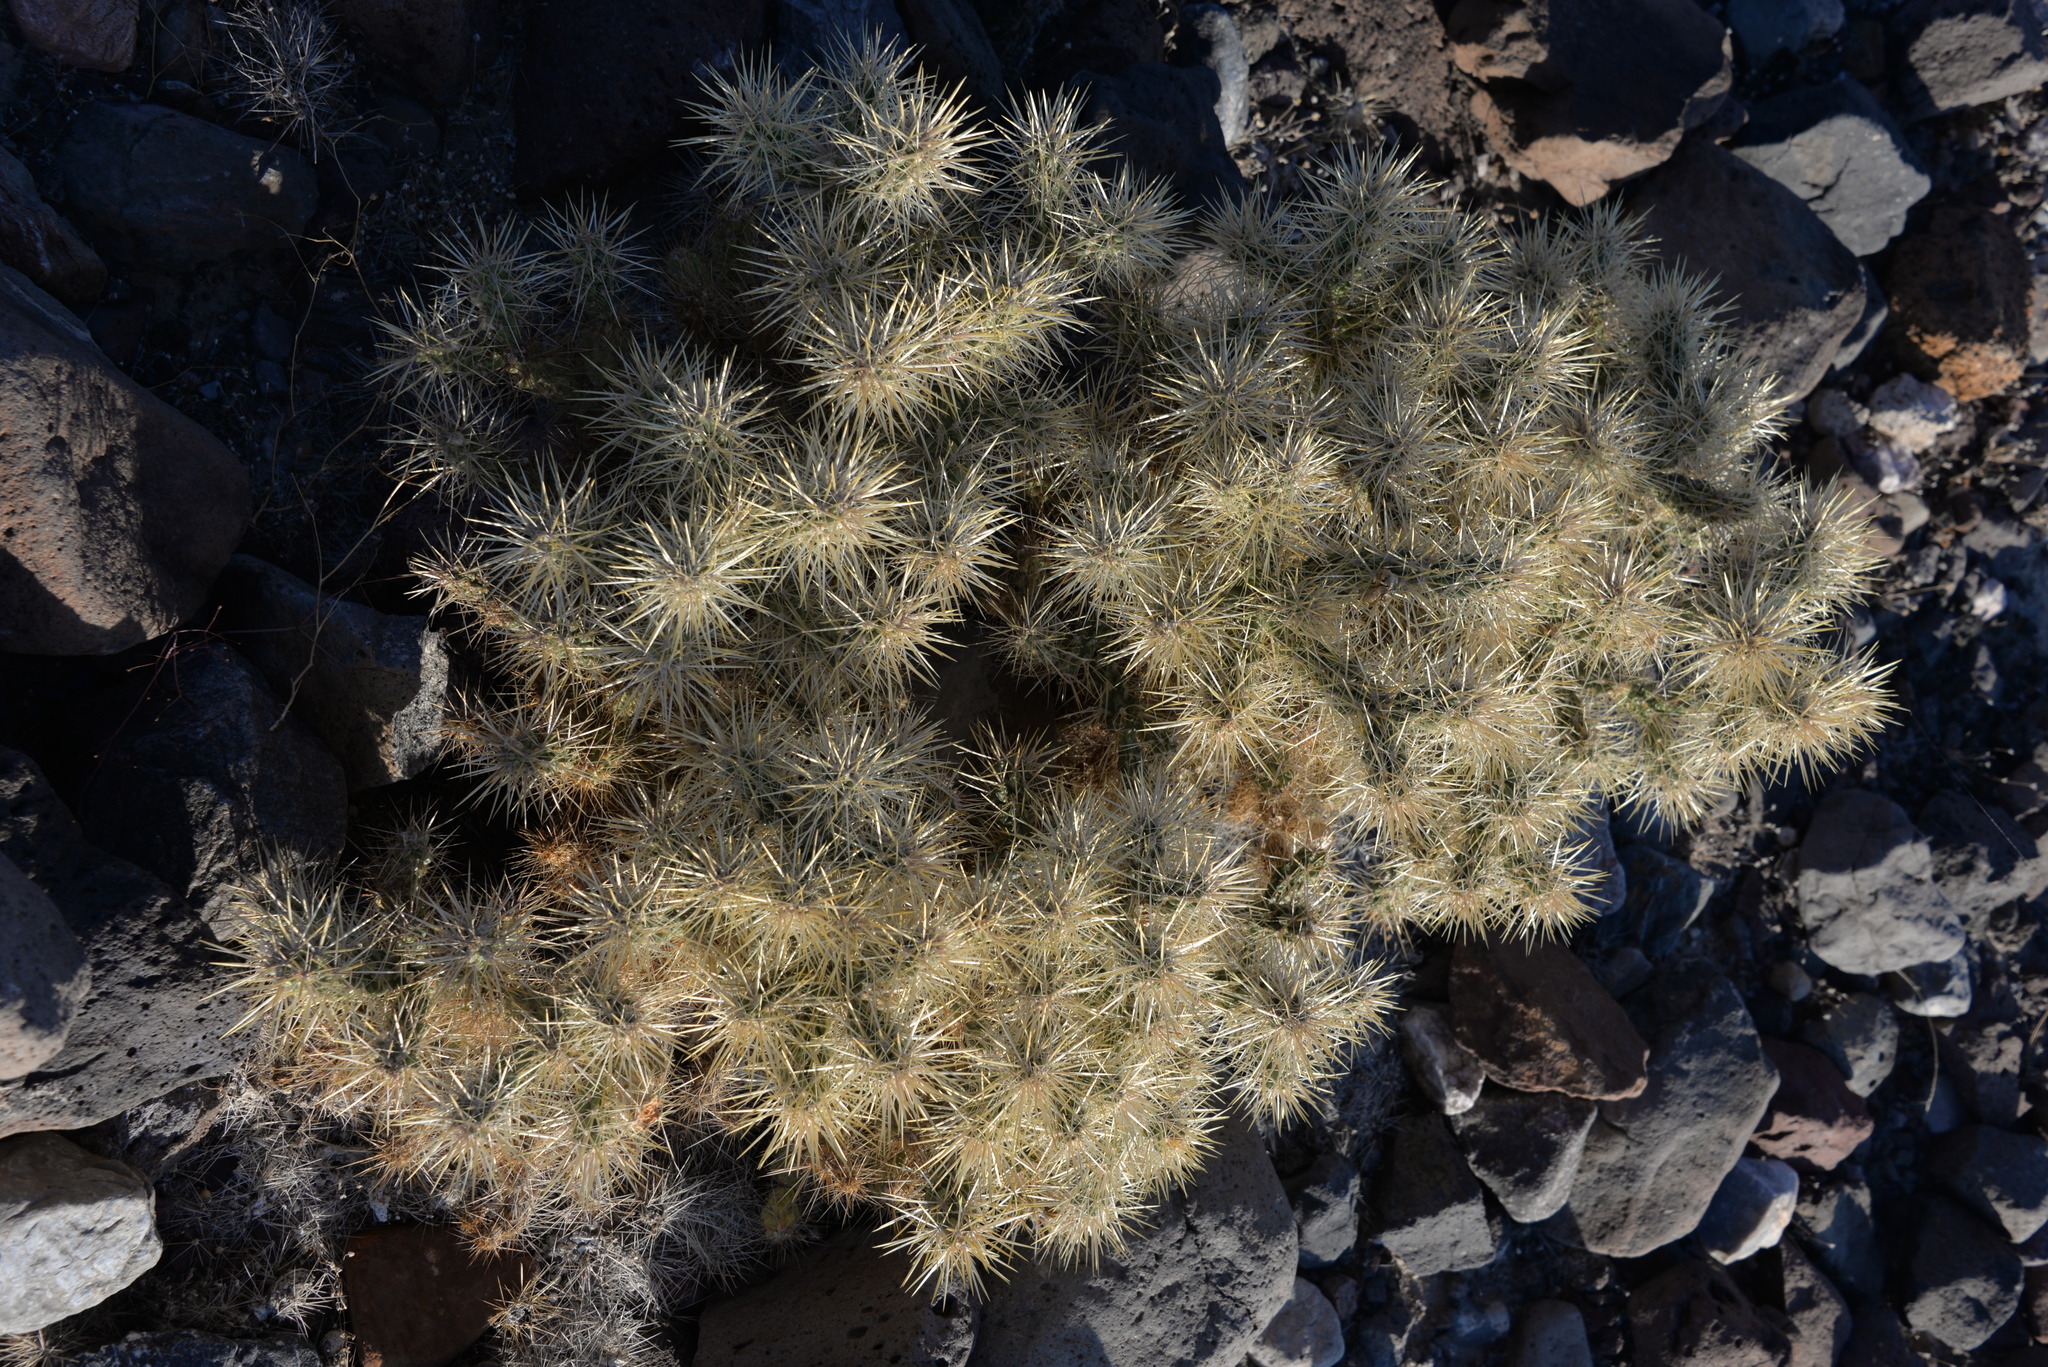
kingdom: Plantae
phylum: Tracheophyta
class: Magnoliopsida
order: Caryophyllales
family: Cactaceae
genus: Cylindropuntia
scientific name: Cylindropuntia echinocarpa
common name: Ground cholla
